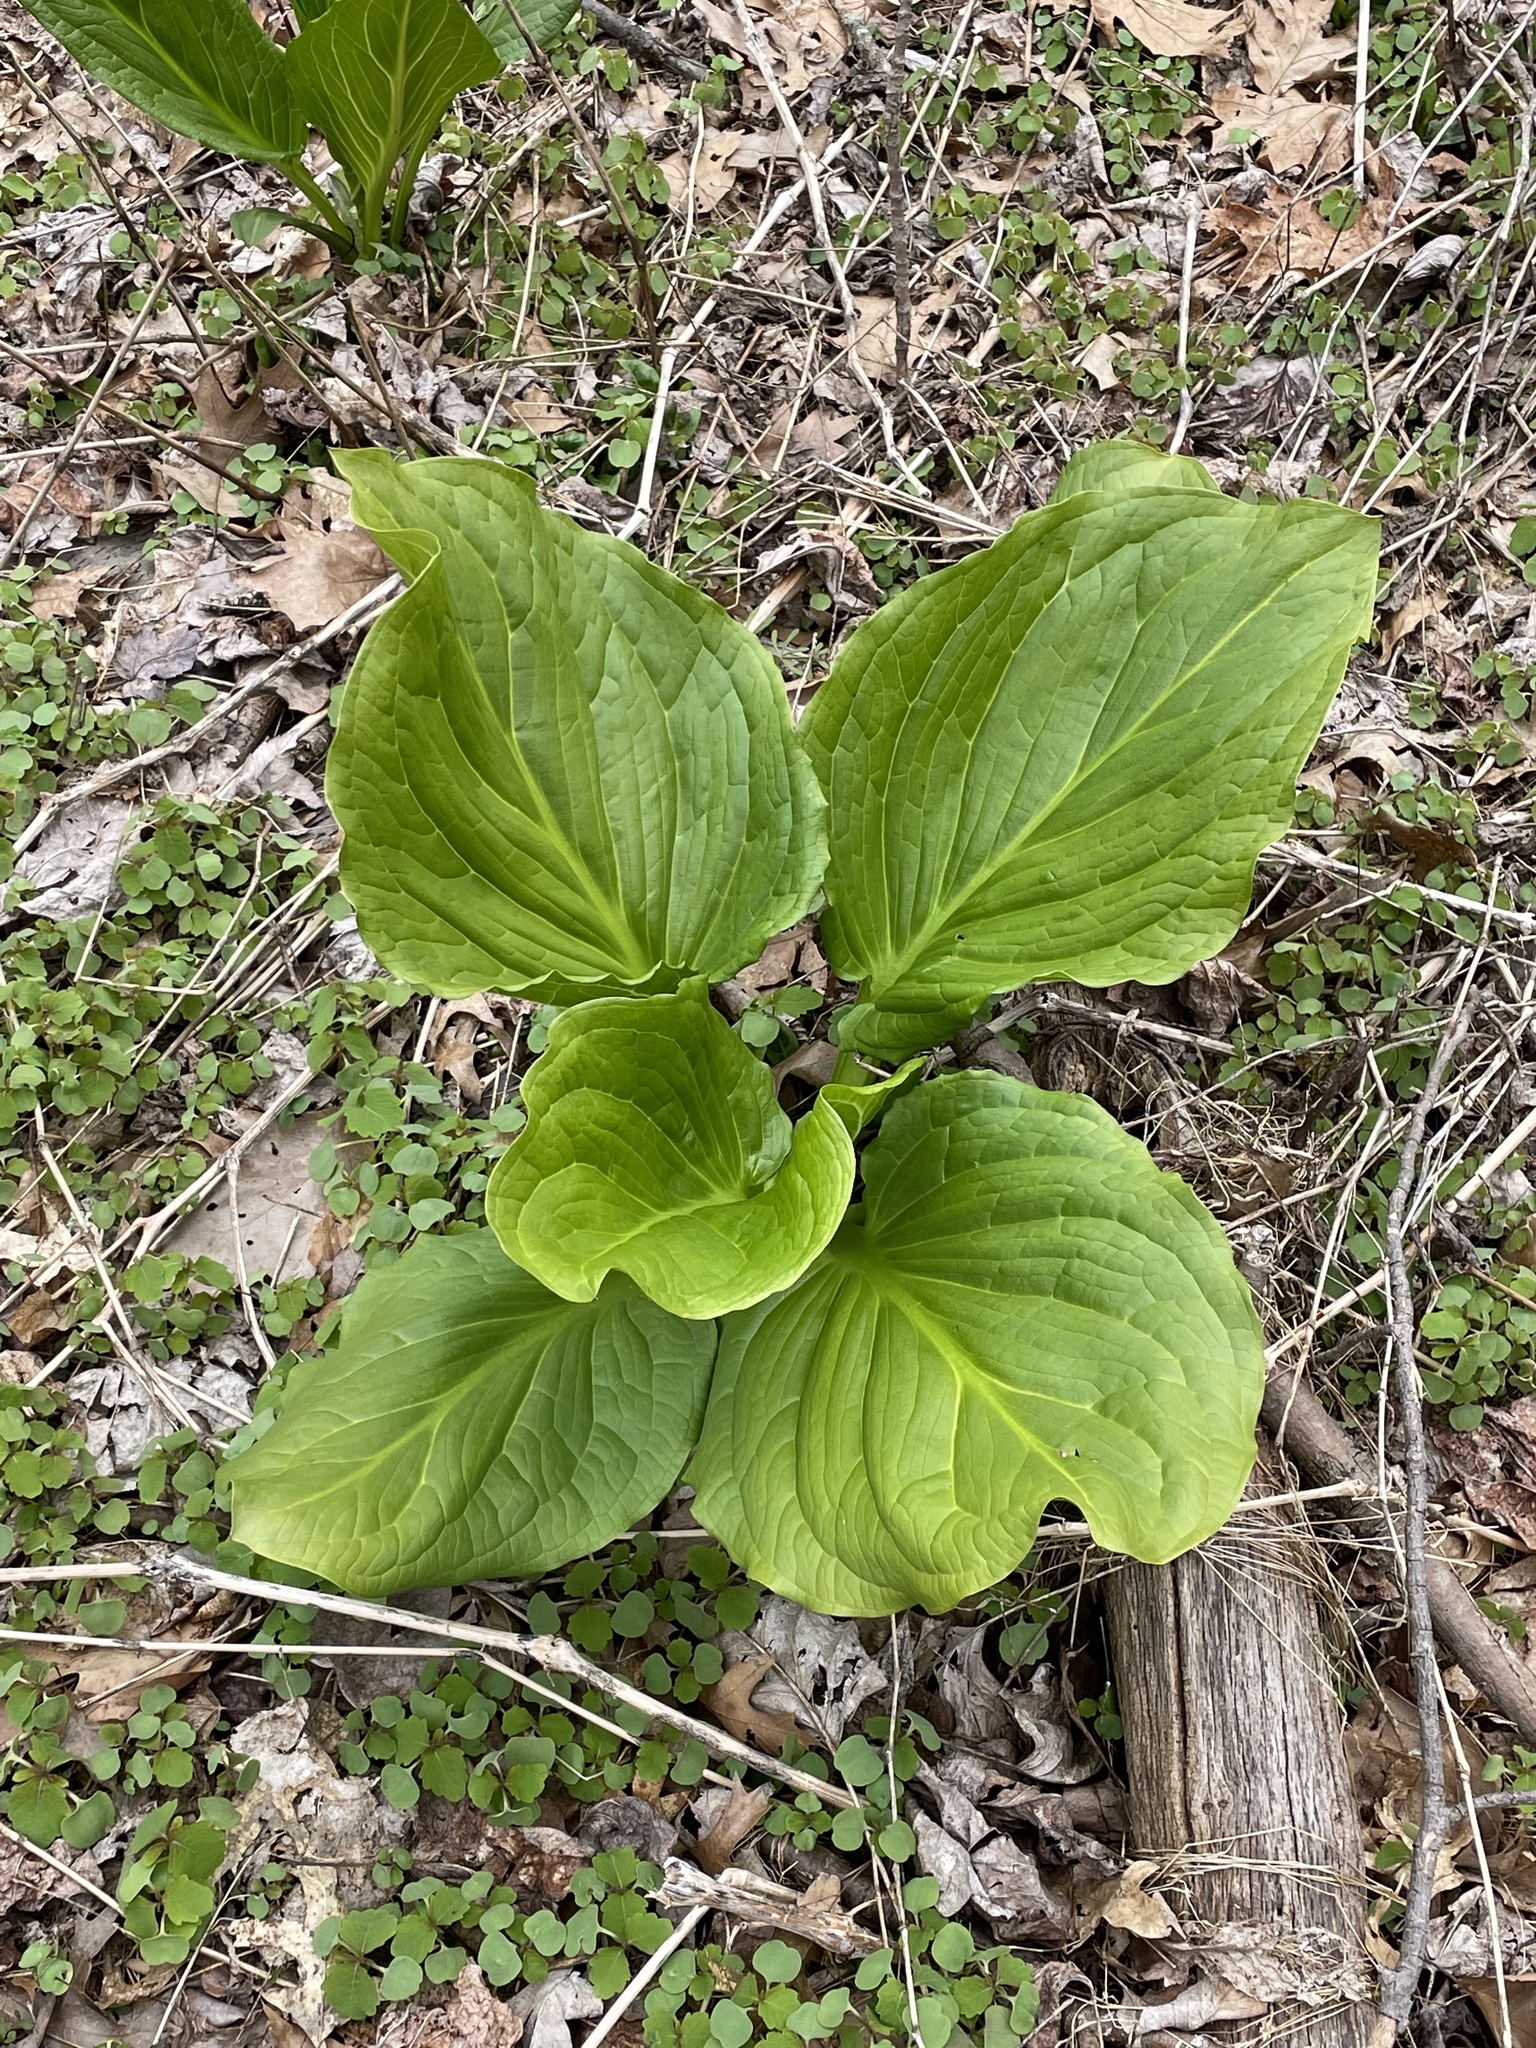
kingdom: Plantae
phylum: Tracheophyta
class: Liliopsida
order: Alismatales
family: Araceae
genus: Symplocarpus
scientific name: Symplocarpus foetidus
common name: Eastern skunk cabbage
